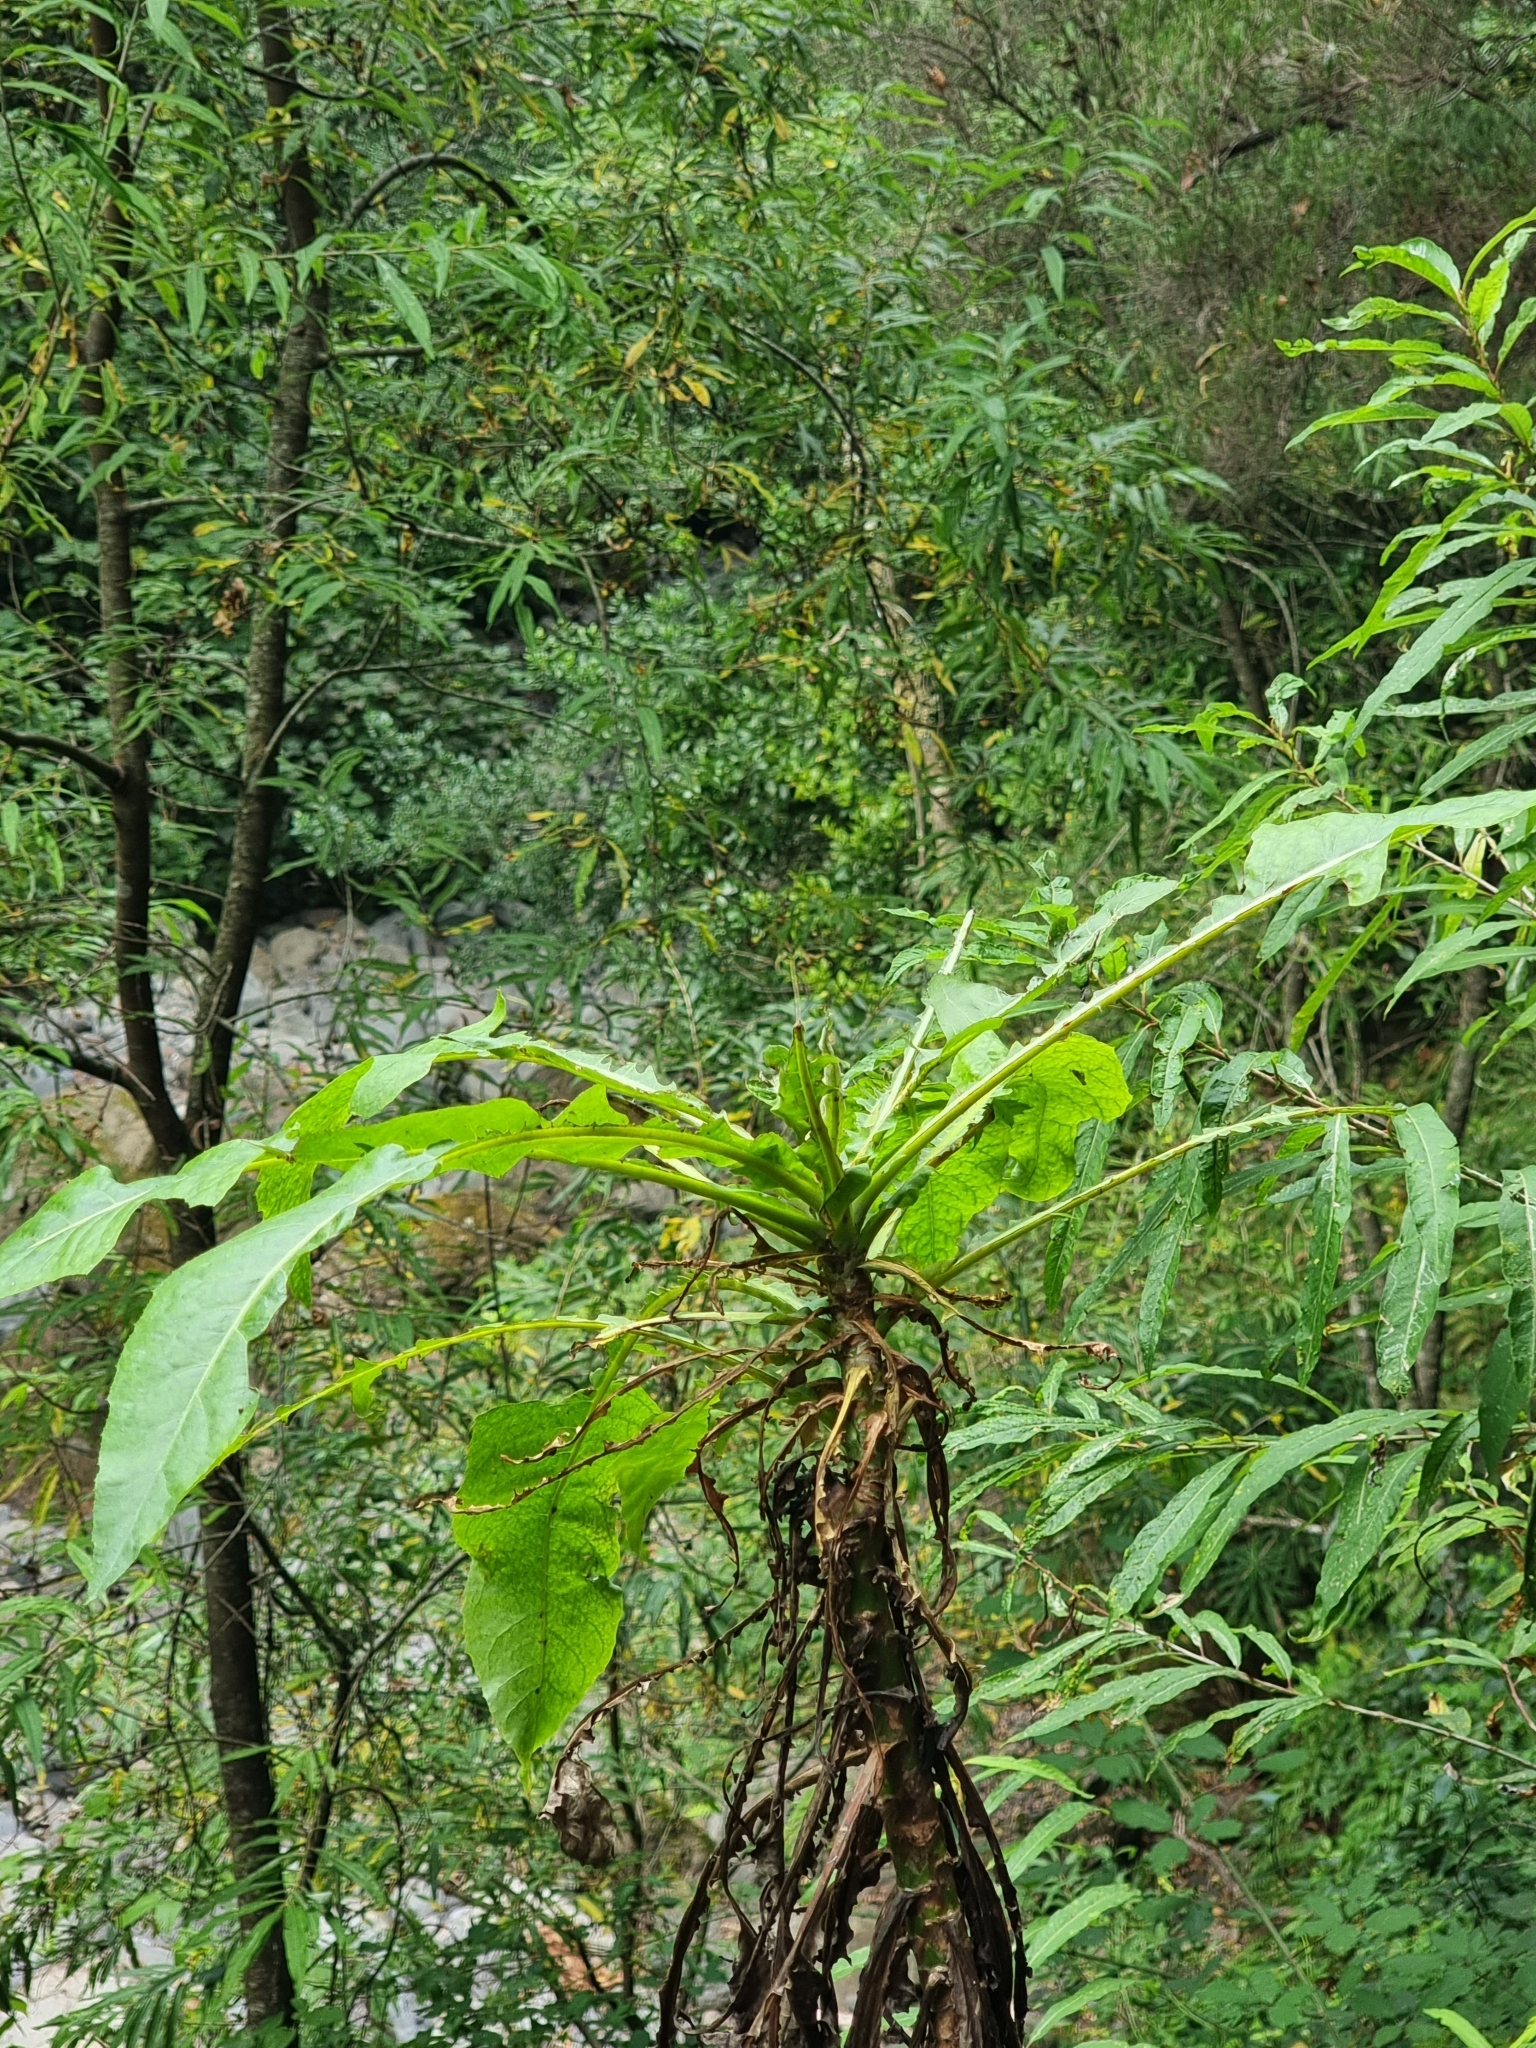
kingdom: Plantae
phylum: Tracheophyta
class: Magnoliopsida
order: Asterales
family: Asteraceae
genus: Sonchus
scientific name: Sonchus fruticosus
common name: Shrubby sow-thistle
